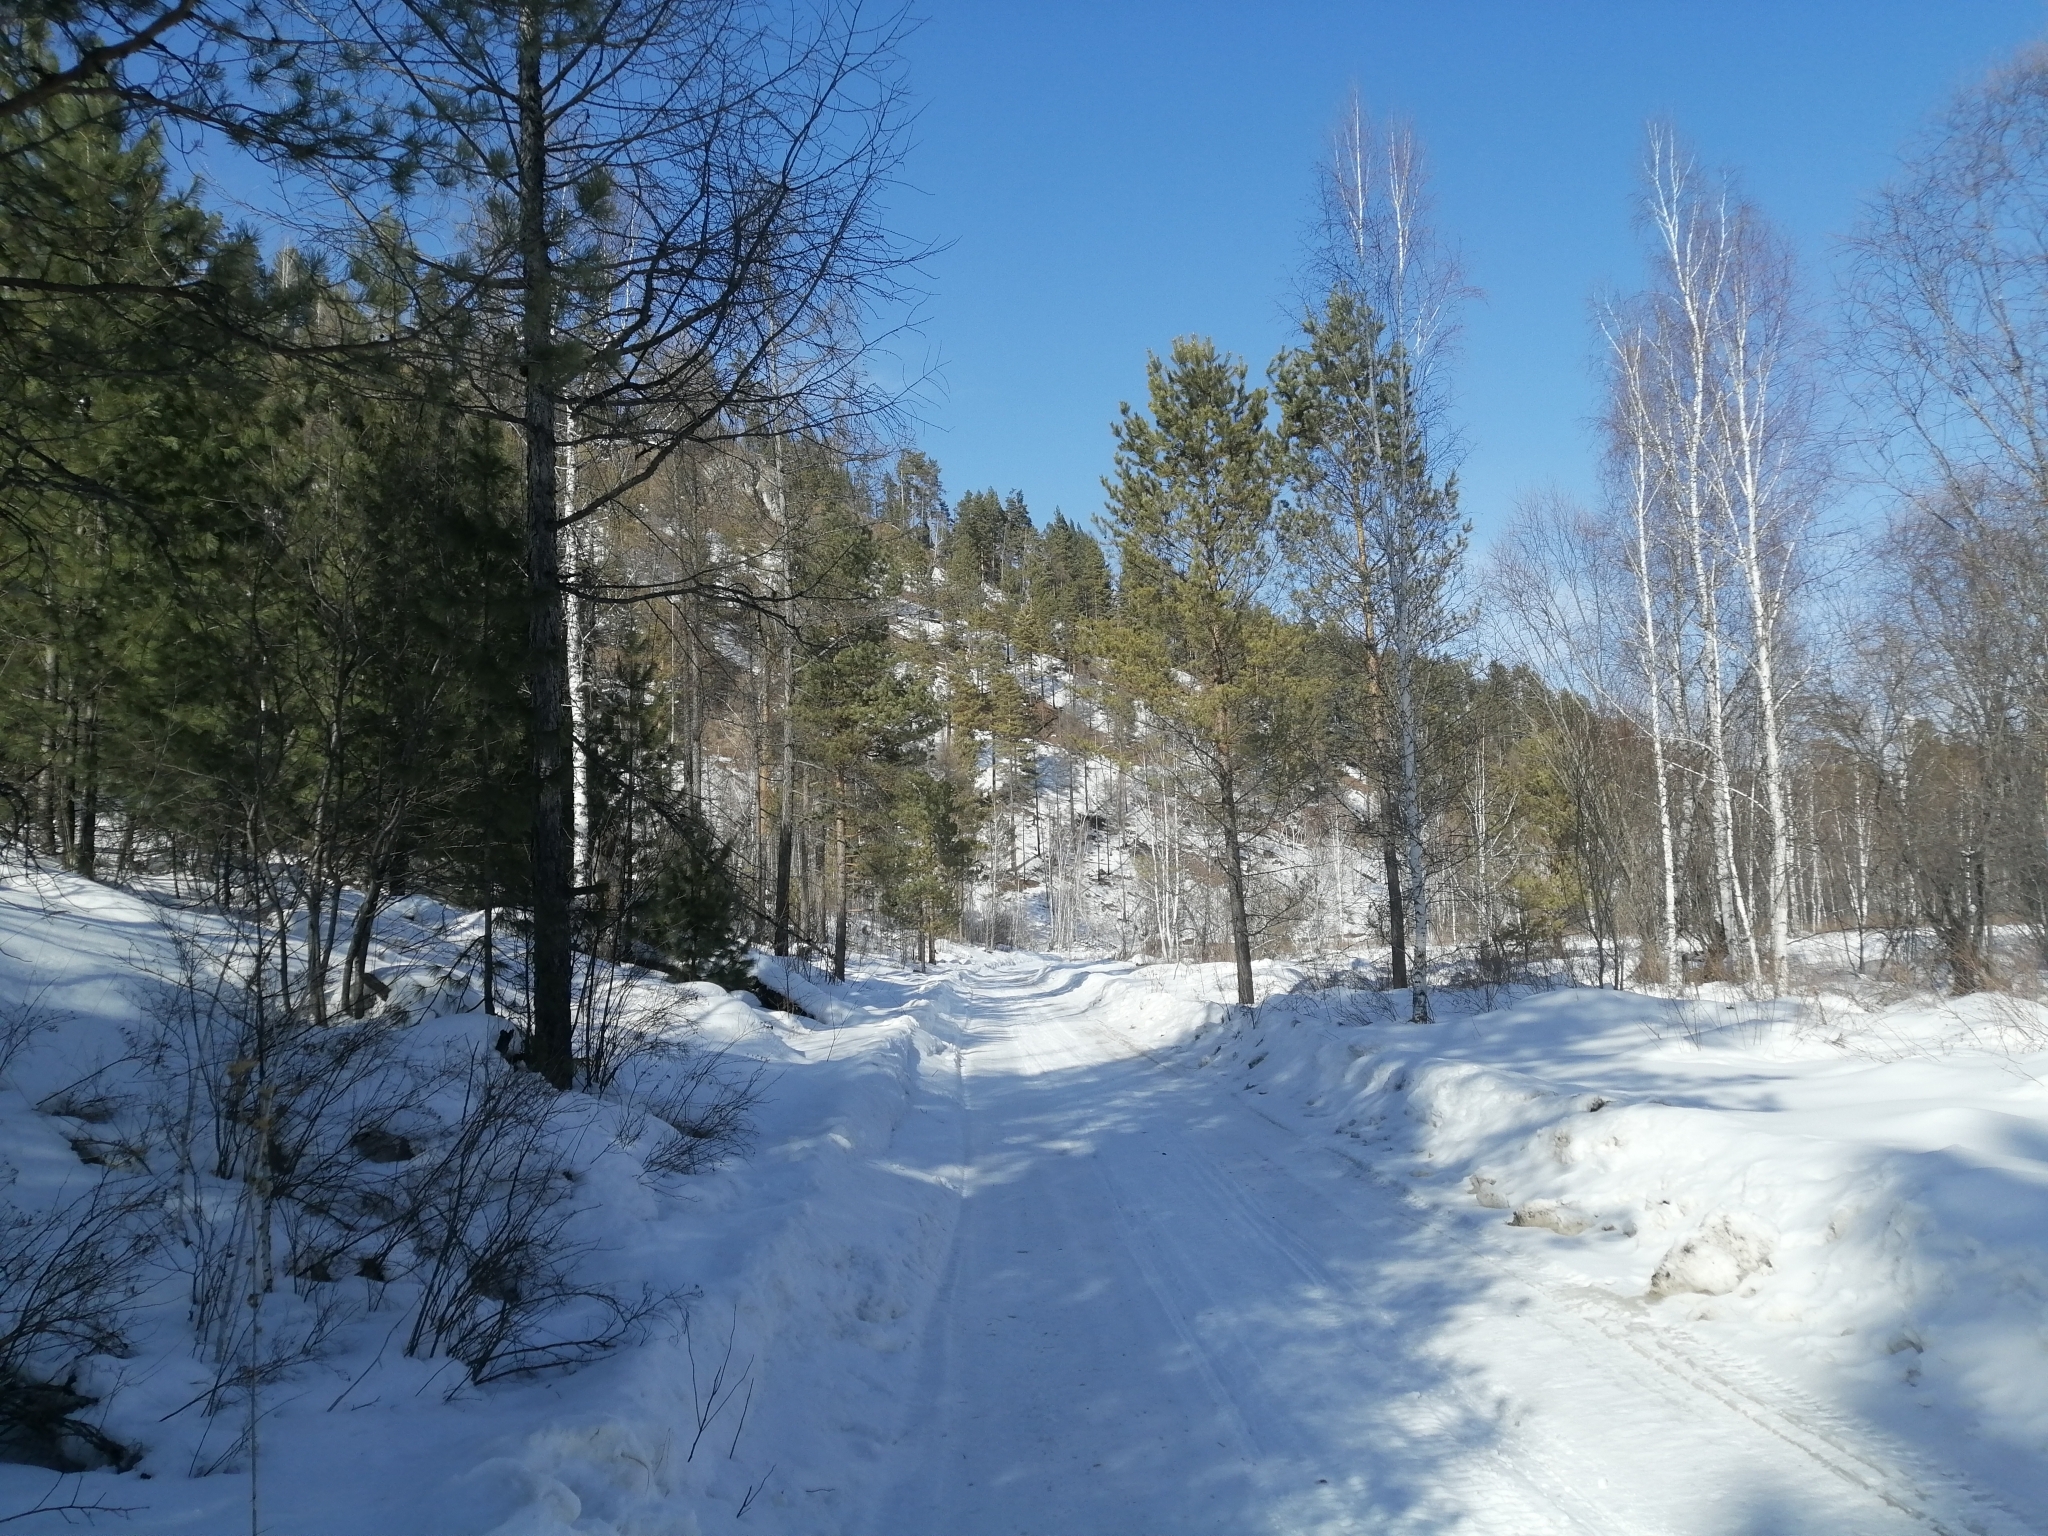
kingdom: Plantae
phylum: Tracheophyta
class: Pinopsida
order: Pinales
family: Pinaceae
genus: Larix
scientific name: Larix sibirica
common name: Siberian larch
